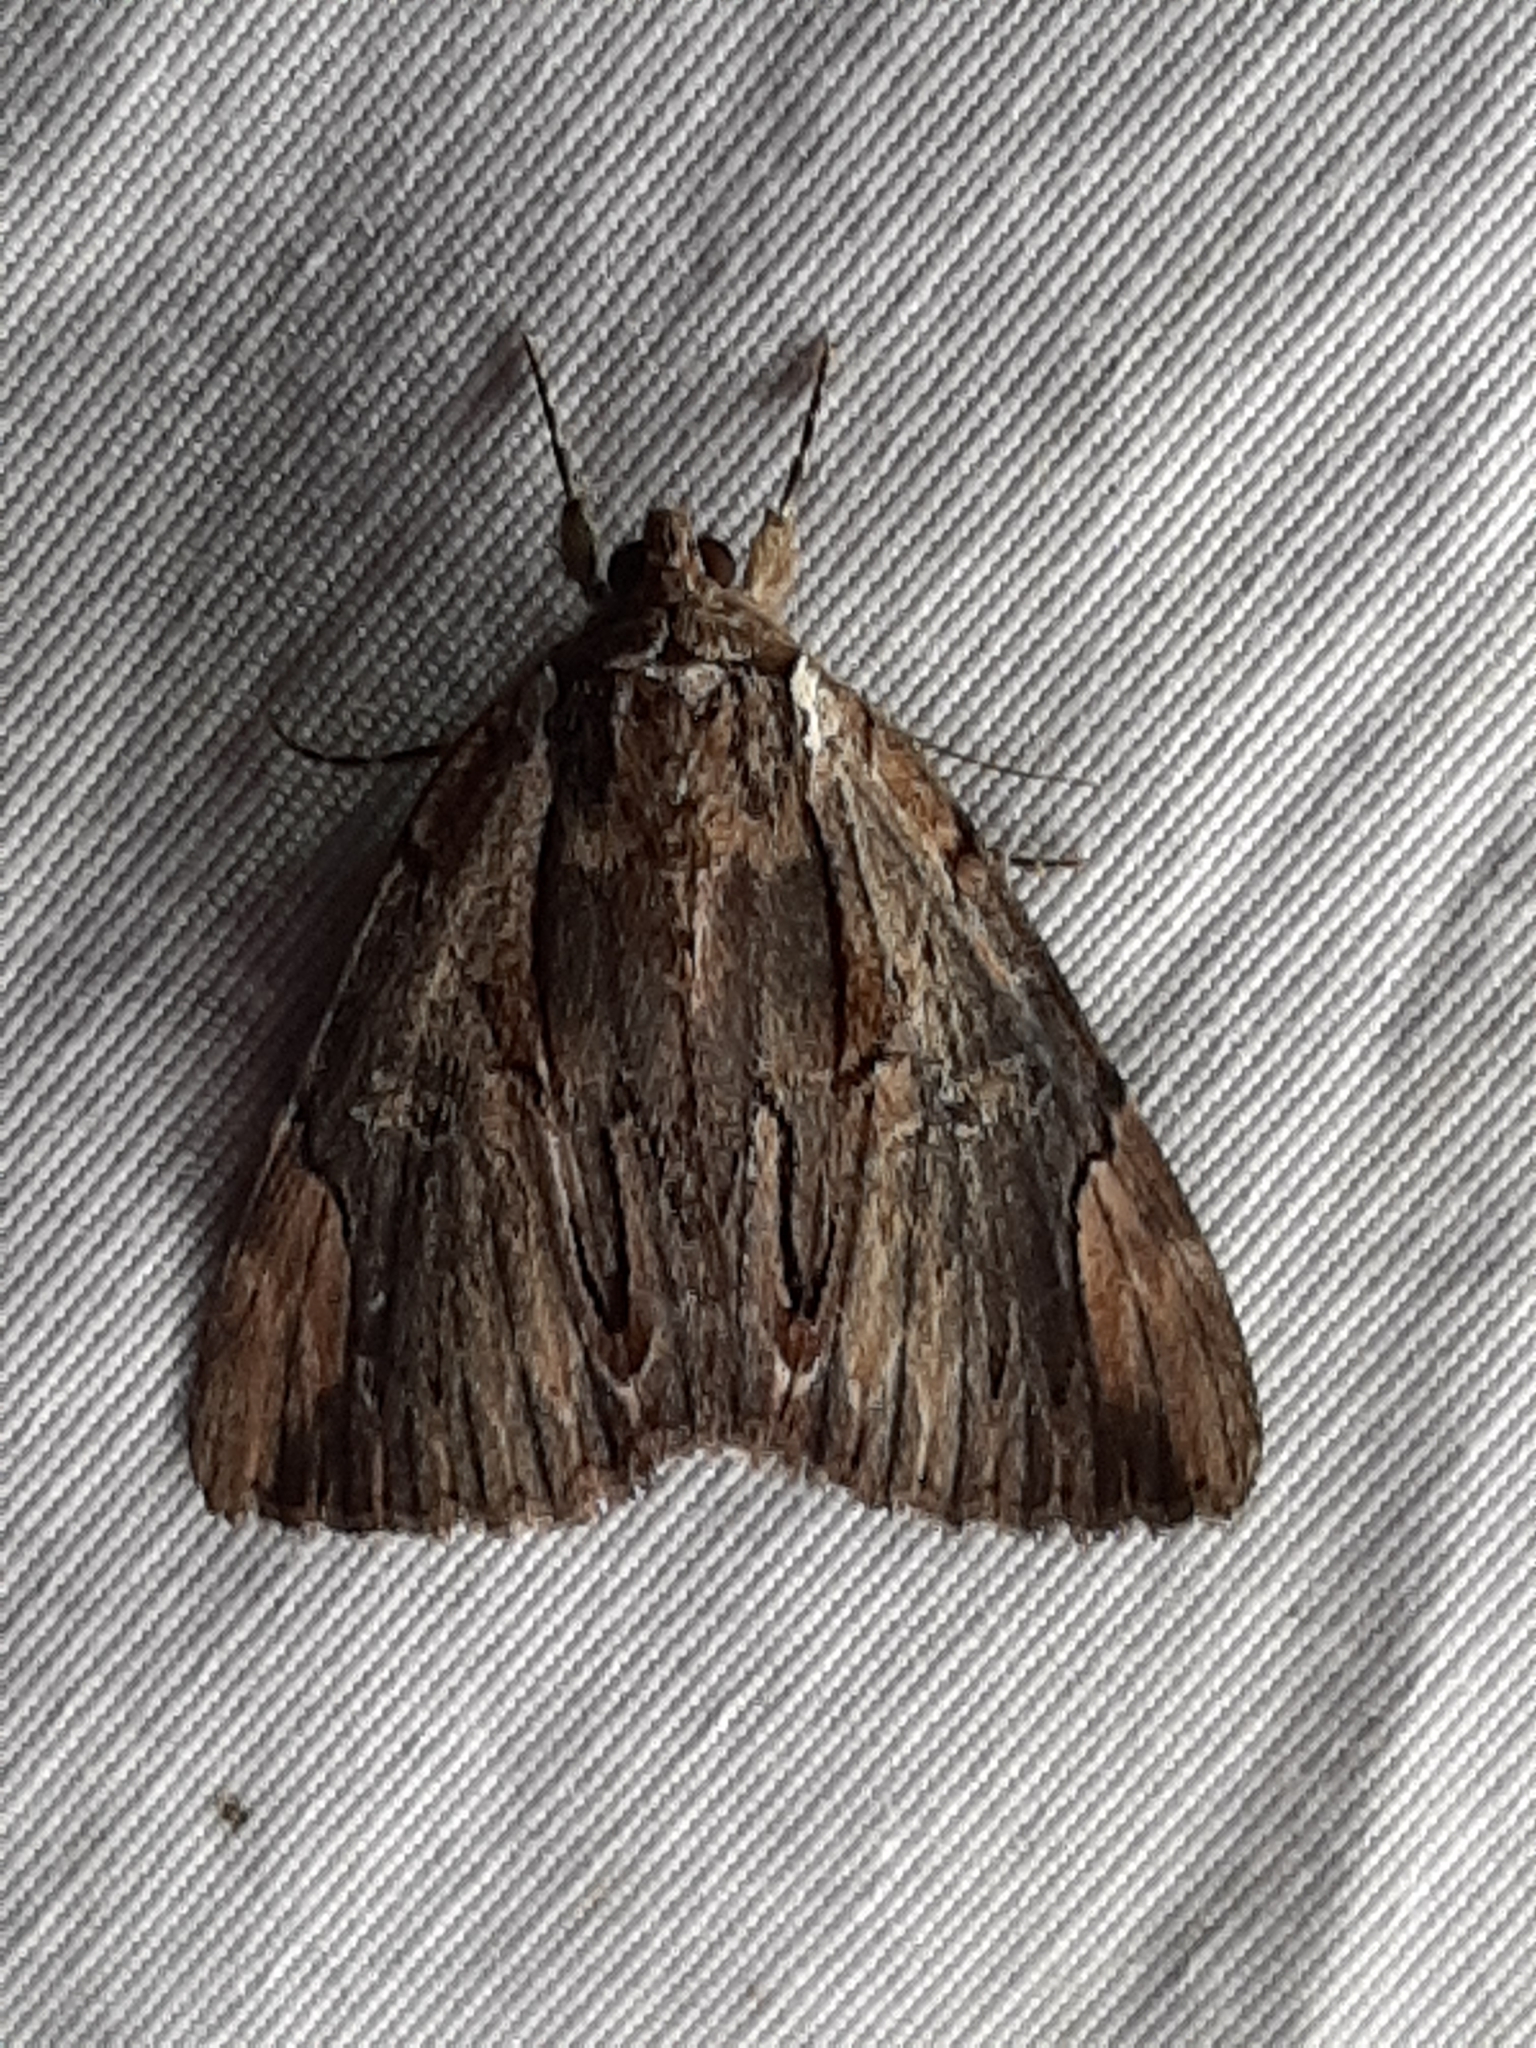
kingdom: Animalia
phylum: Arthropoda
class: Insecta
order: Lepidoptera
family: Erebidae
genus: Catocala
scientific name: Catocala ultronia
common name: Ultronia underwing
